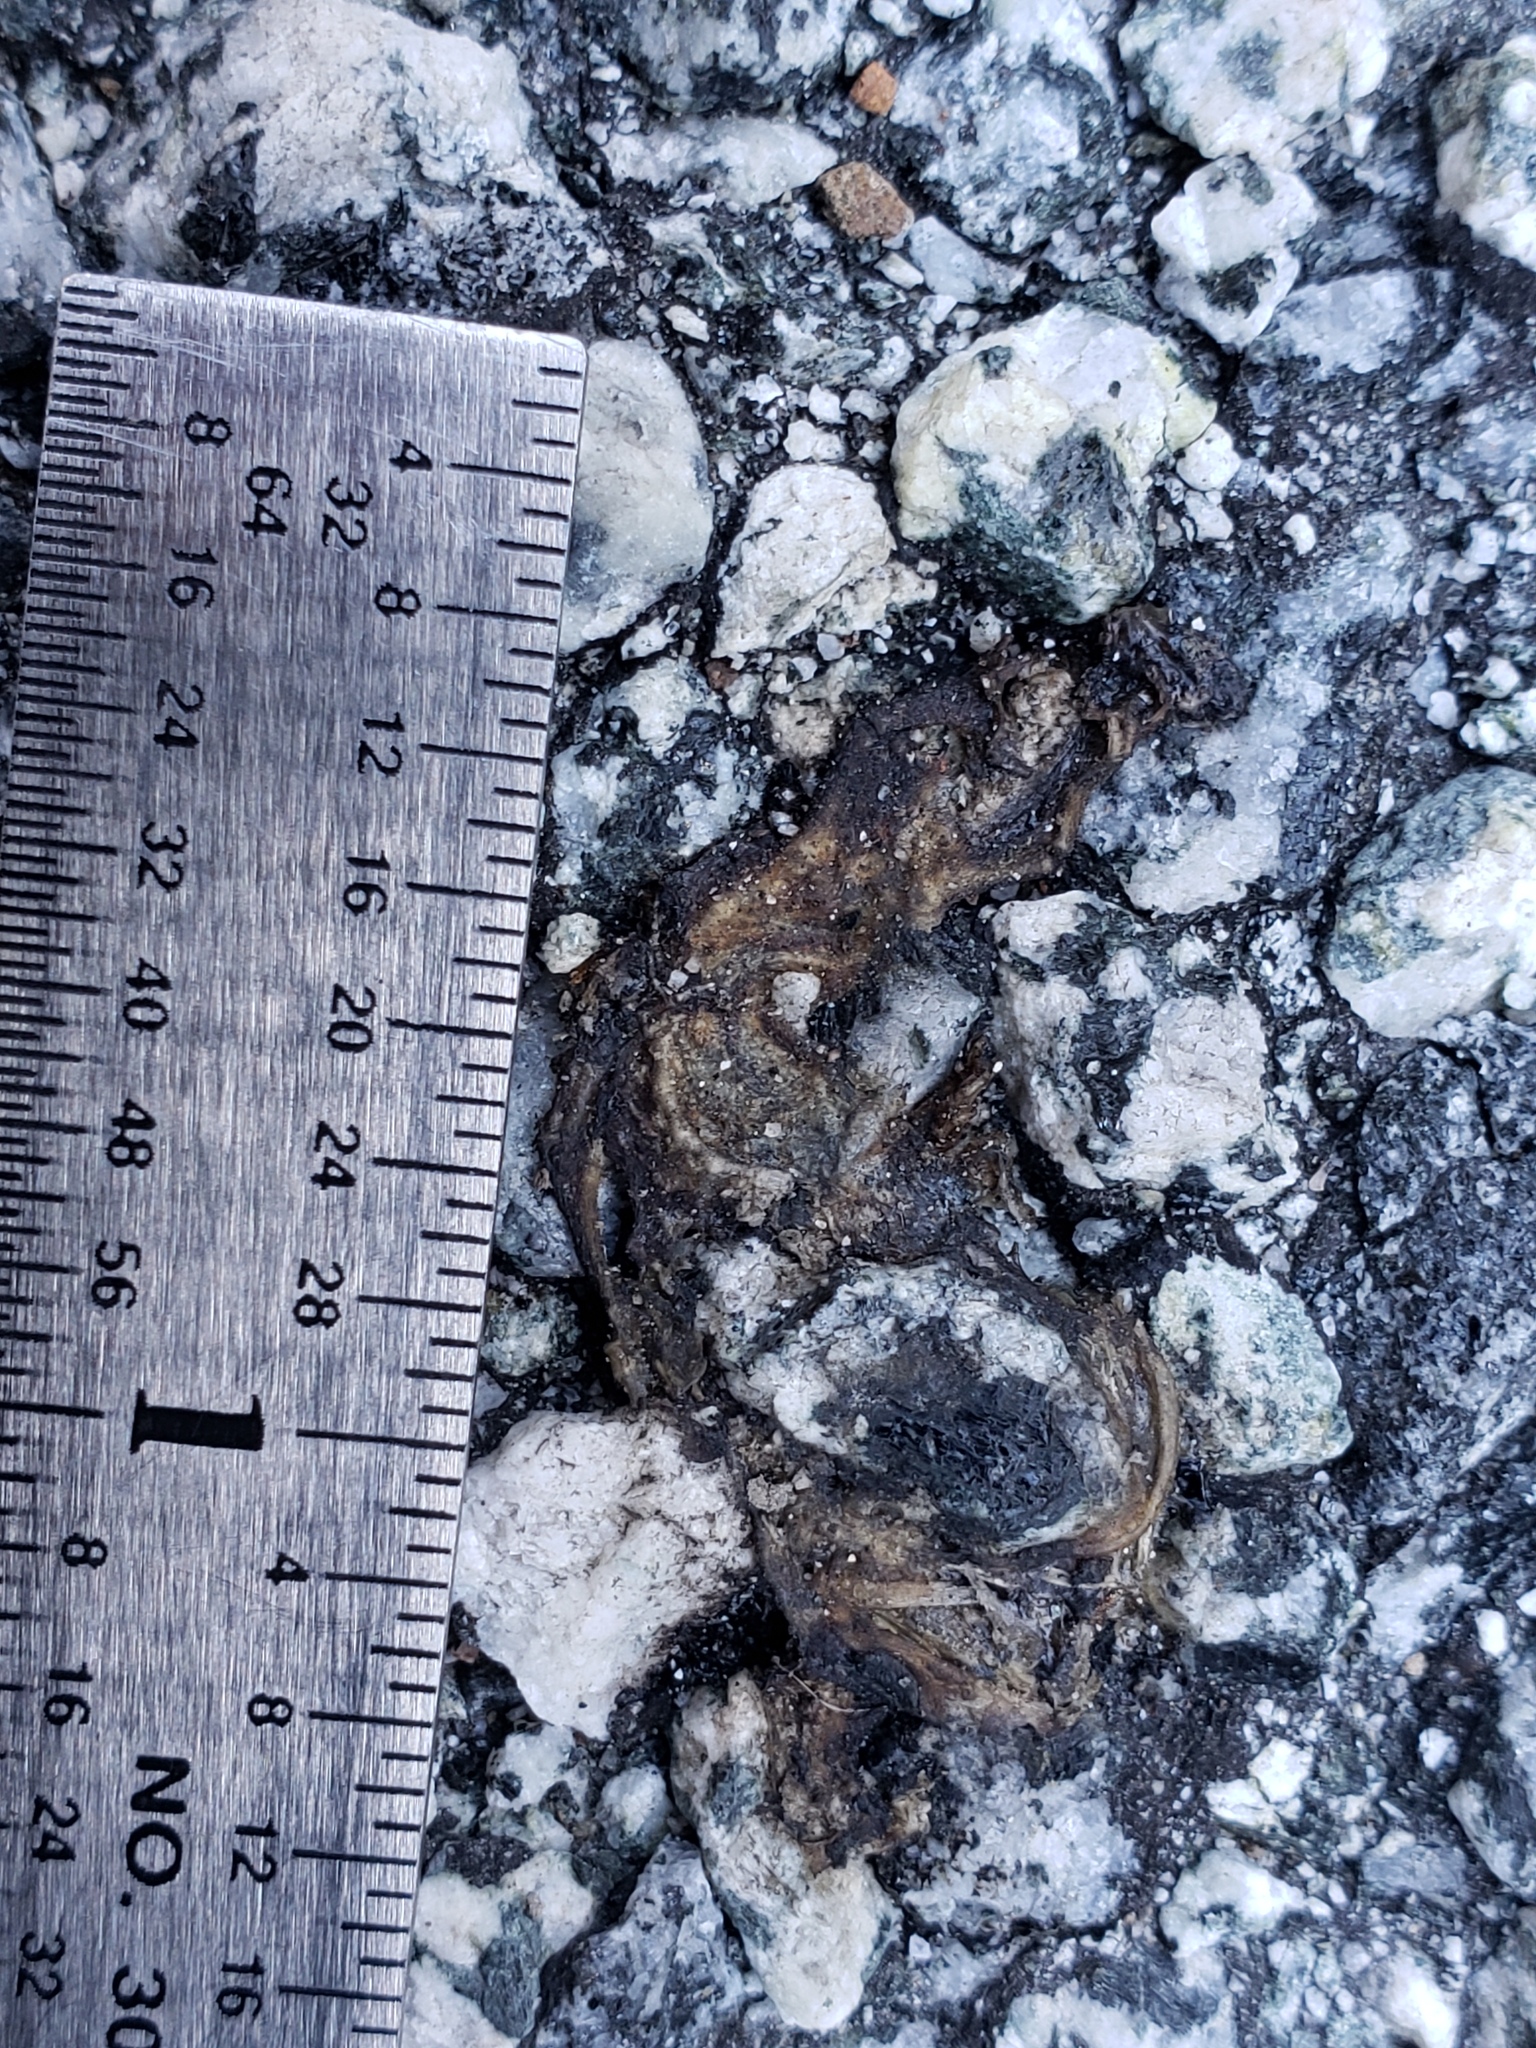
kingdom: Animalia
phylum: Chordata
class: Amphibia
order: Caudata
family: Salamandridae
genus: Taricha
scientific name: Taricha
